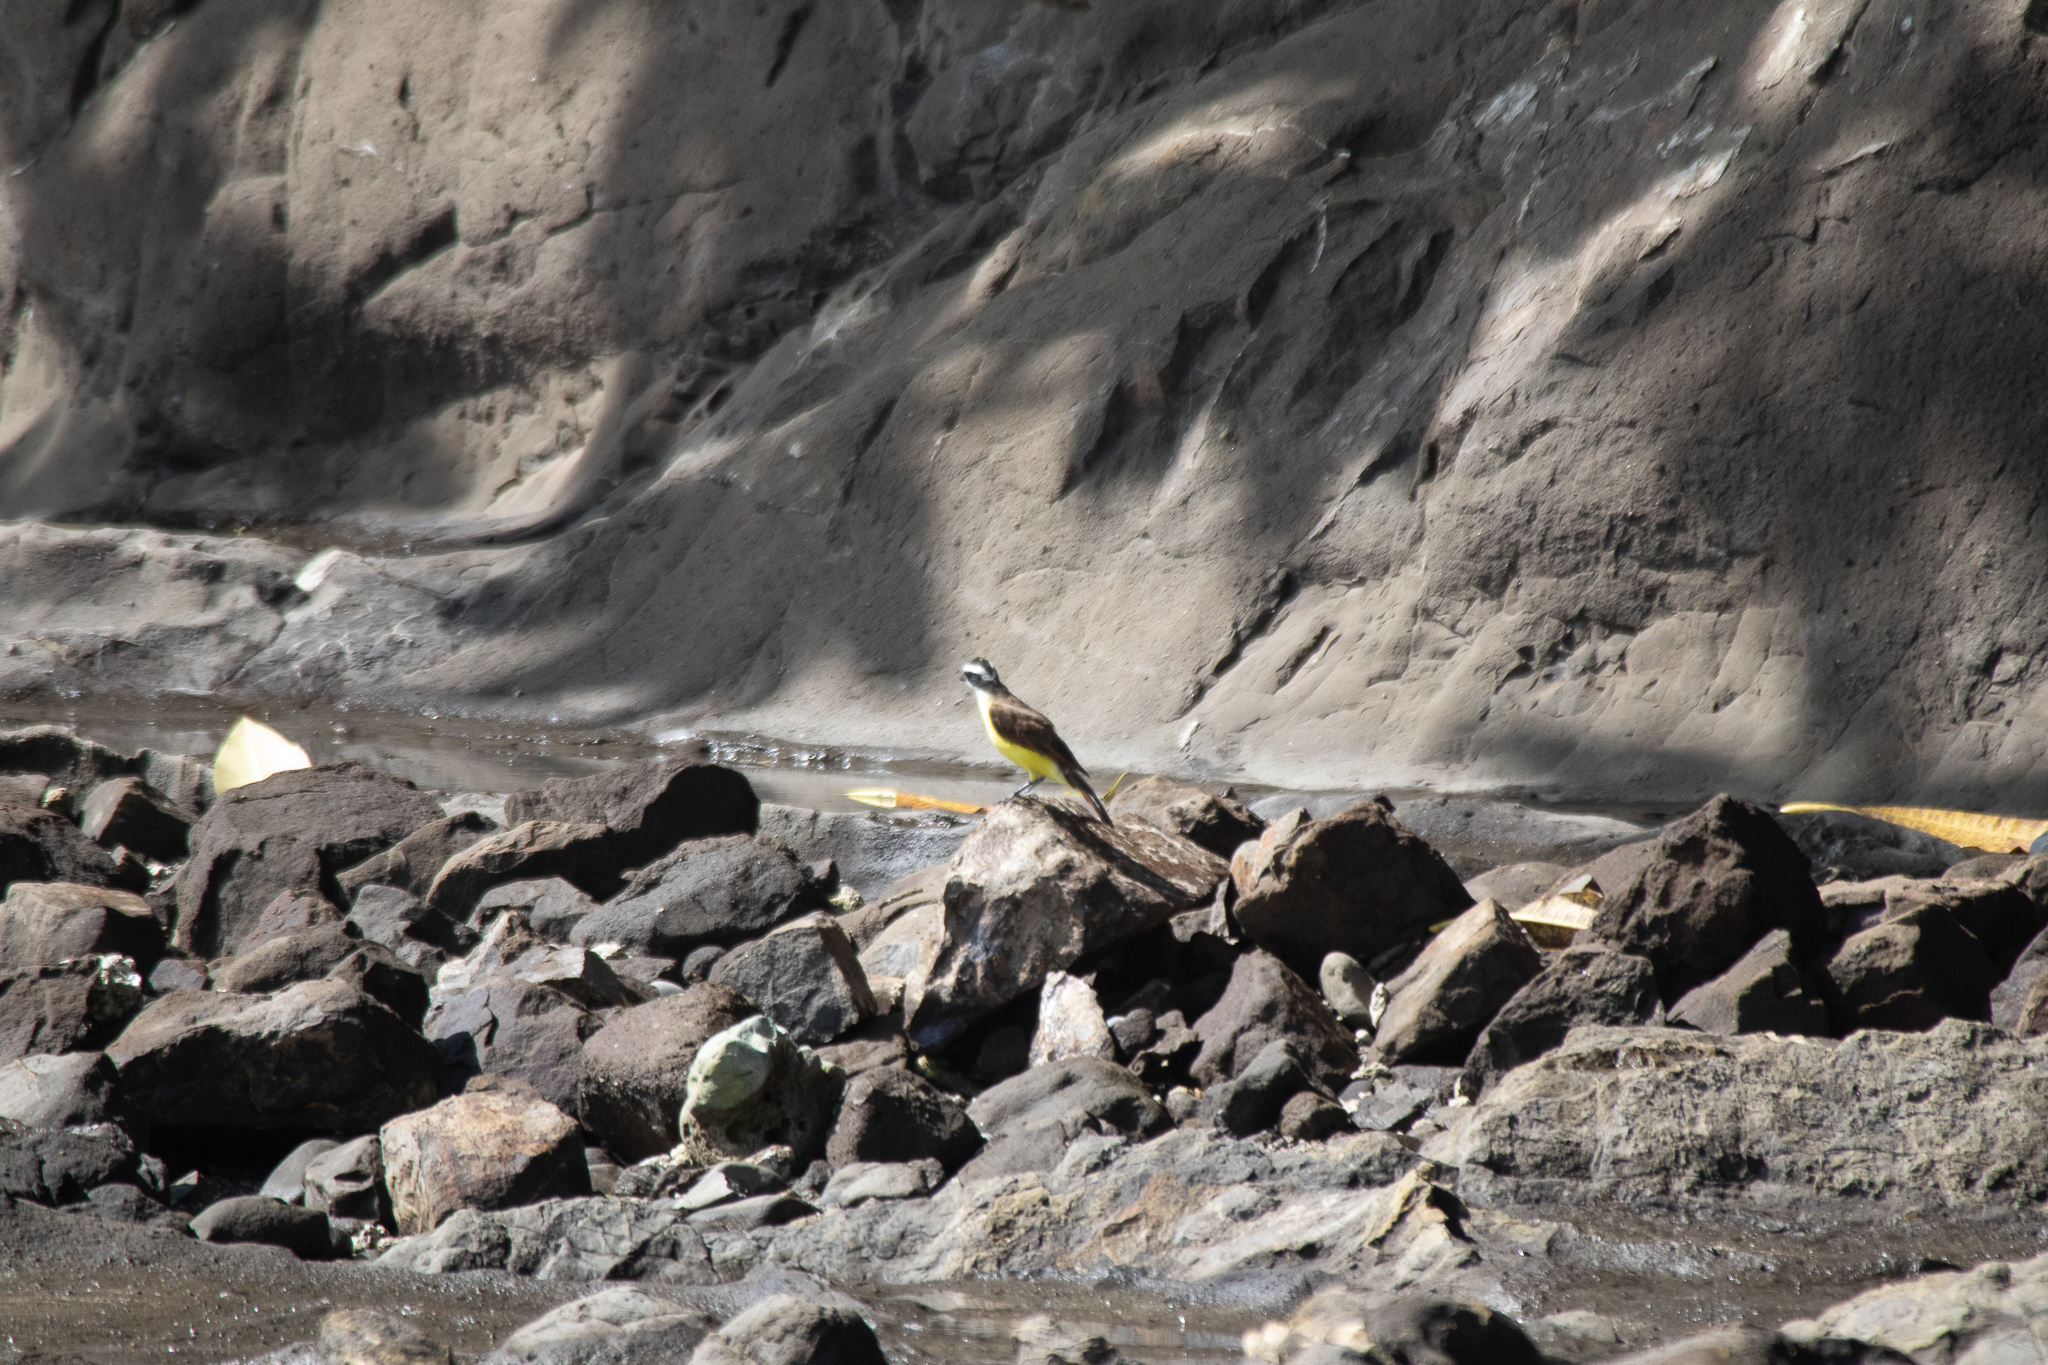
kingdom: Animalia
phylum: Chordata
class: Aves
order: Passeriformes
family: Tyrannidae
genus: Pitangus
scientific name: Pitangus sulphuratus
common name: Great kiskadee
